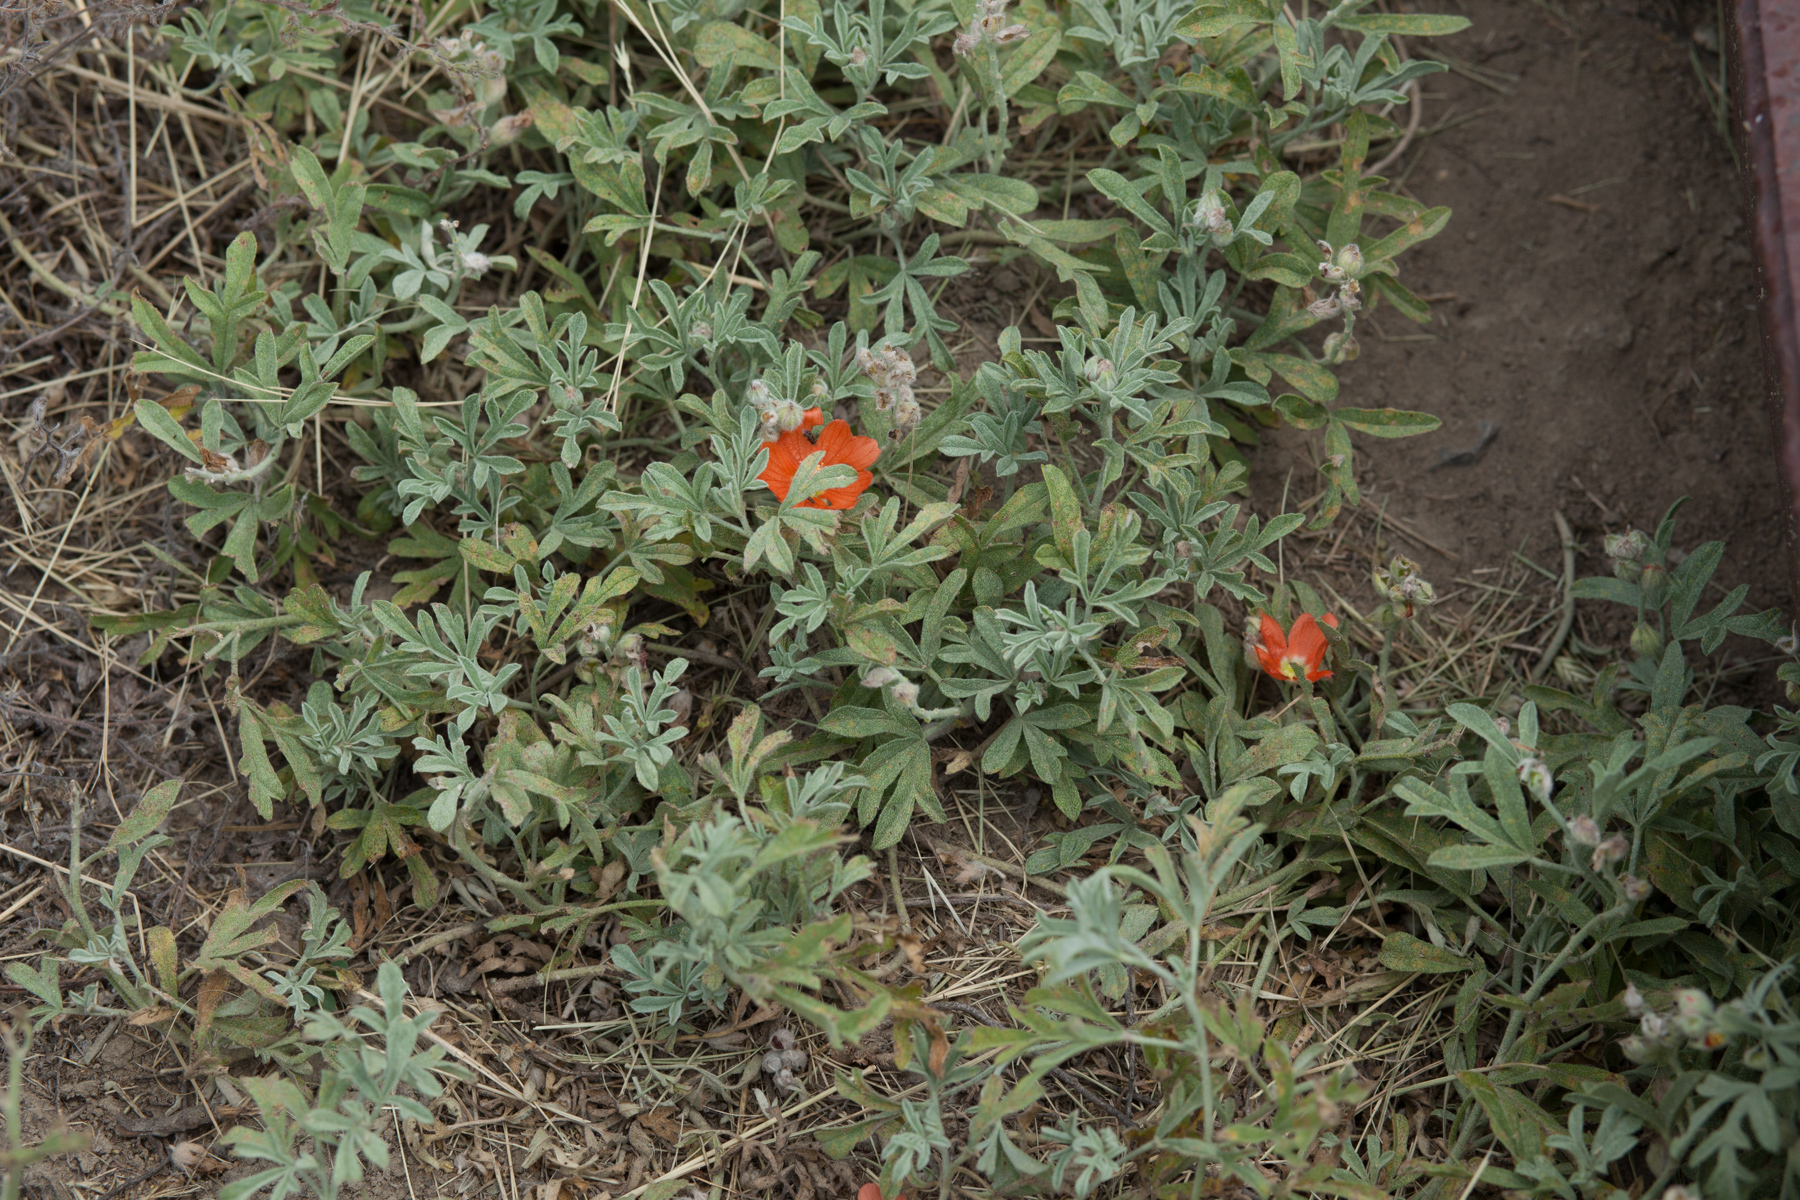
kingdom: Plantae
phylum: Tracheophyta
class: Magnoliopsida
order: Malvales
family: Malvaceae
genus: Sphaeralcea
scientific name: Sphaeralcea coccinea
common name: Moss-rose
